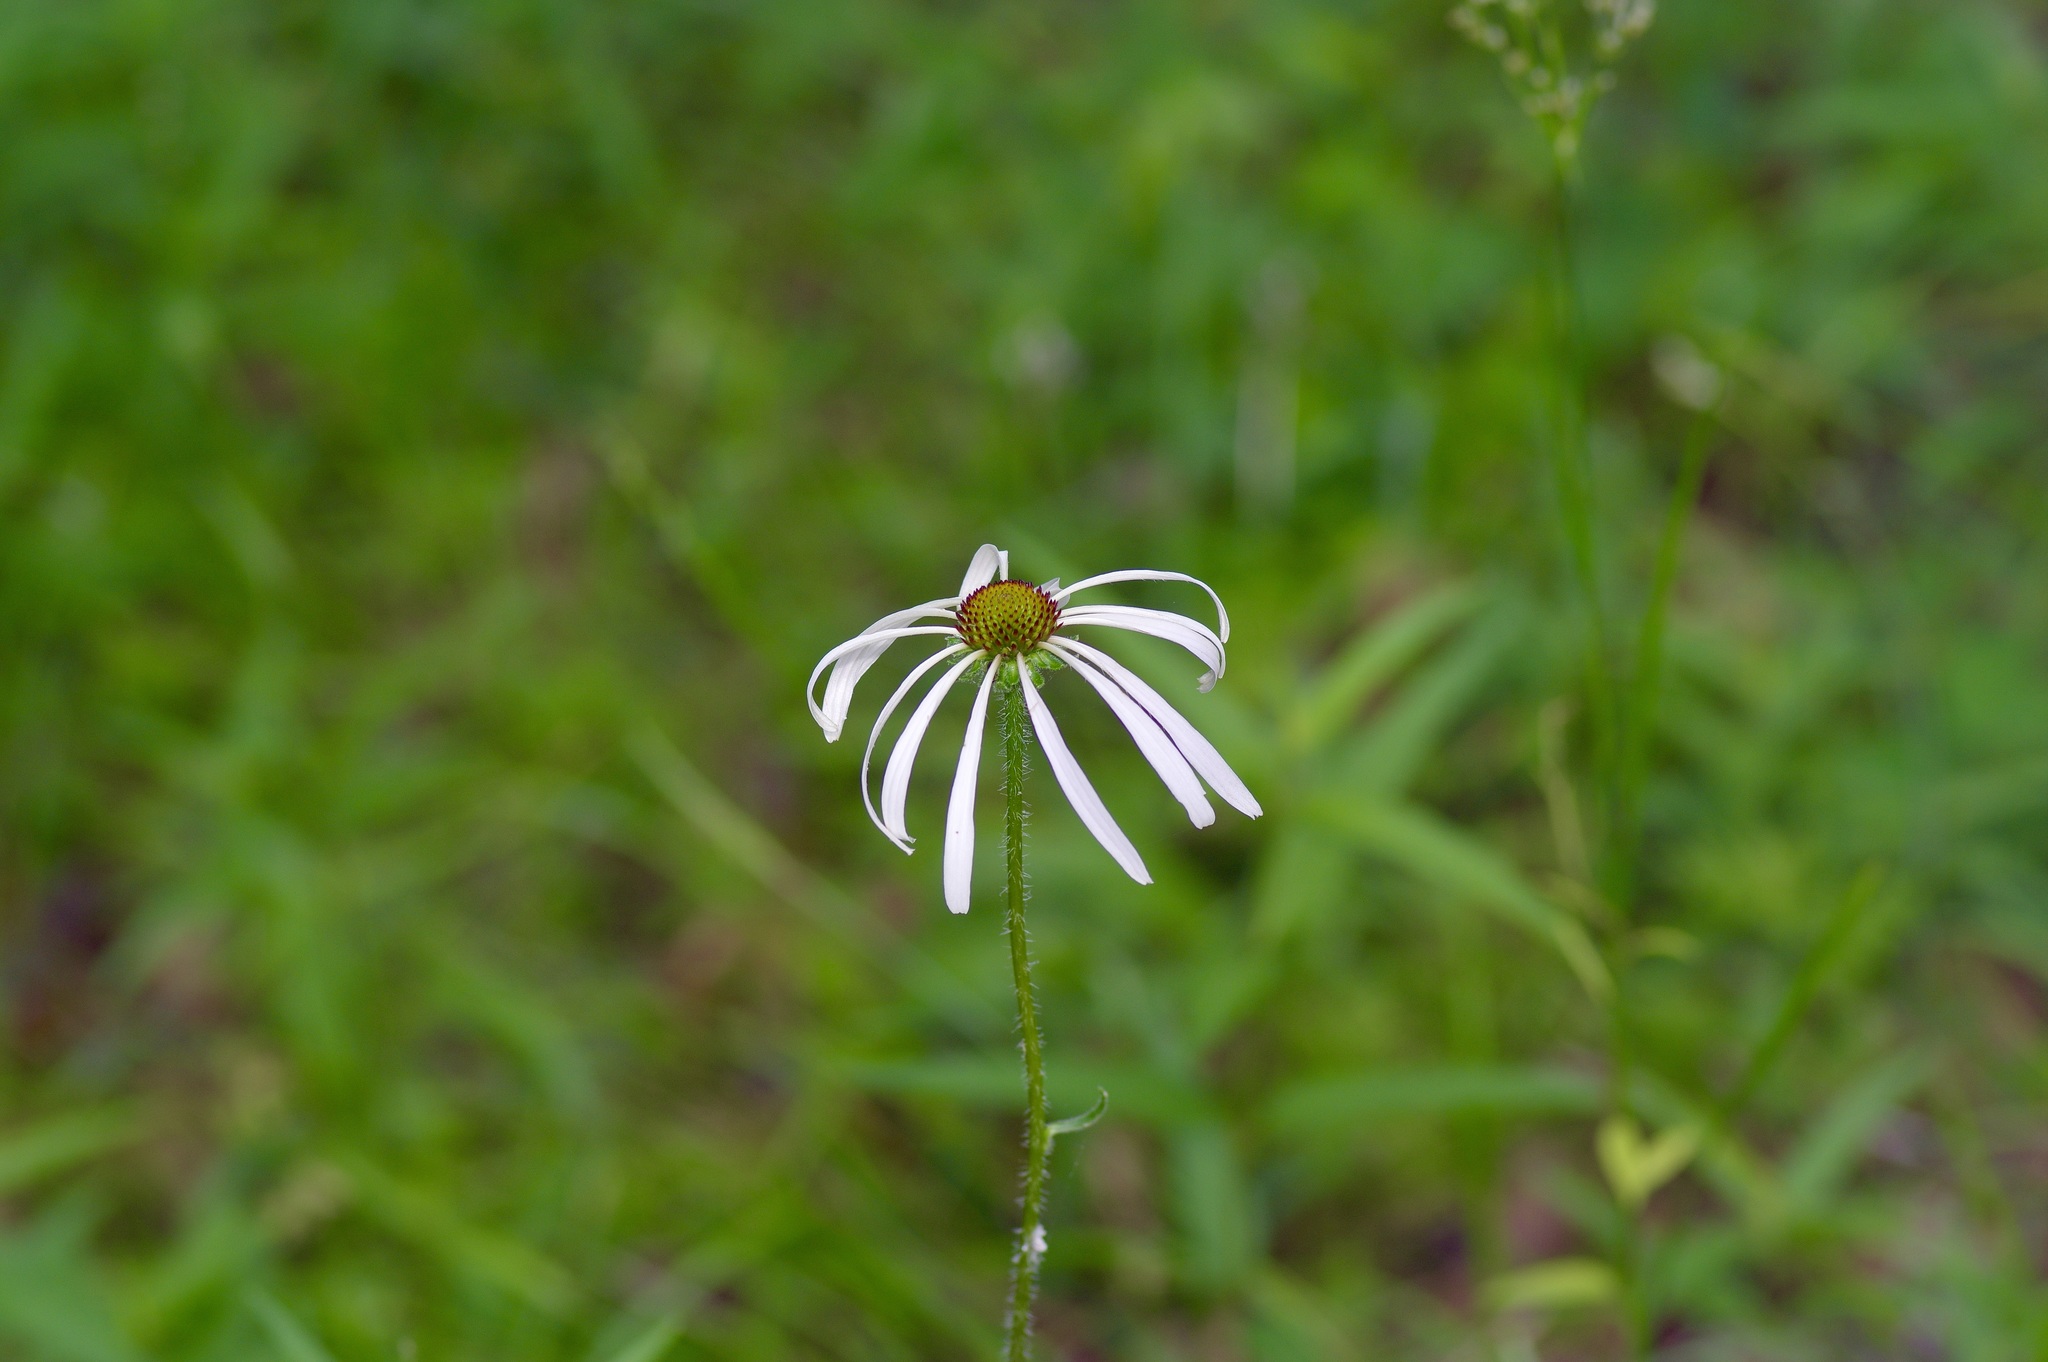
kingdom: Plantae
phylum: Tracheophyta
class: Magnoliopsida
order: Asterales
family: Asteraceae
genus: Echinacea
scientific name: Echinacea sanguinea
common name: Sanguine purple-coneflower
